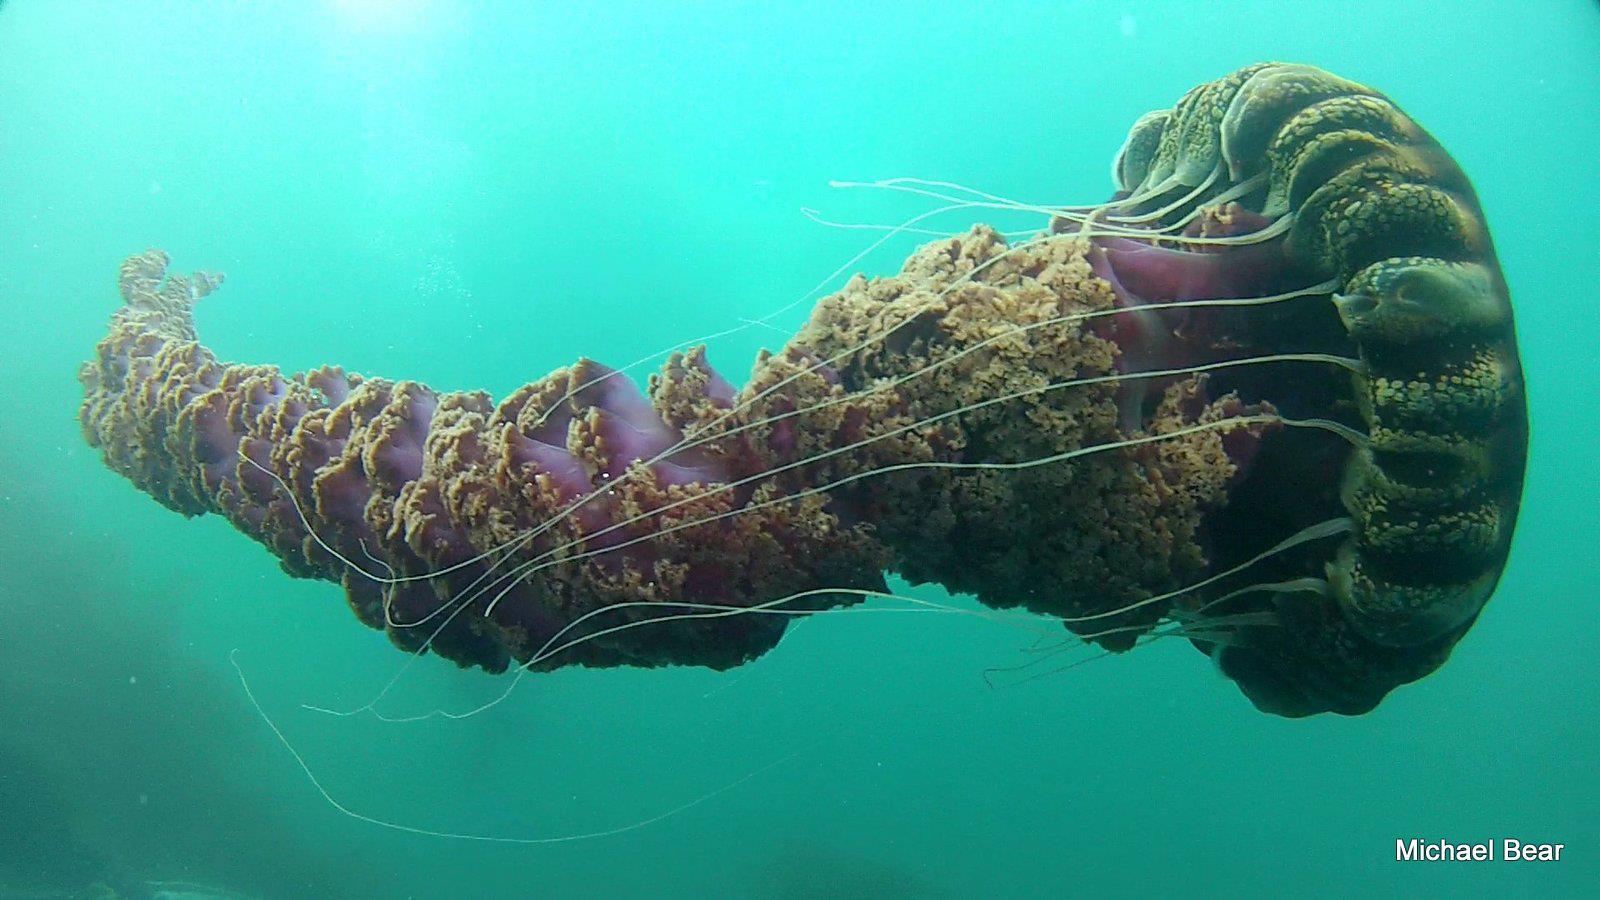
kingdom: Animalia
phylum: Cnidaria
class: Scyphozoa
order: Semaeostomeae
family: Pelagiidae
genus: Chrysaora
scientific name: Chrysaora achlyos
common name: Black jelly
